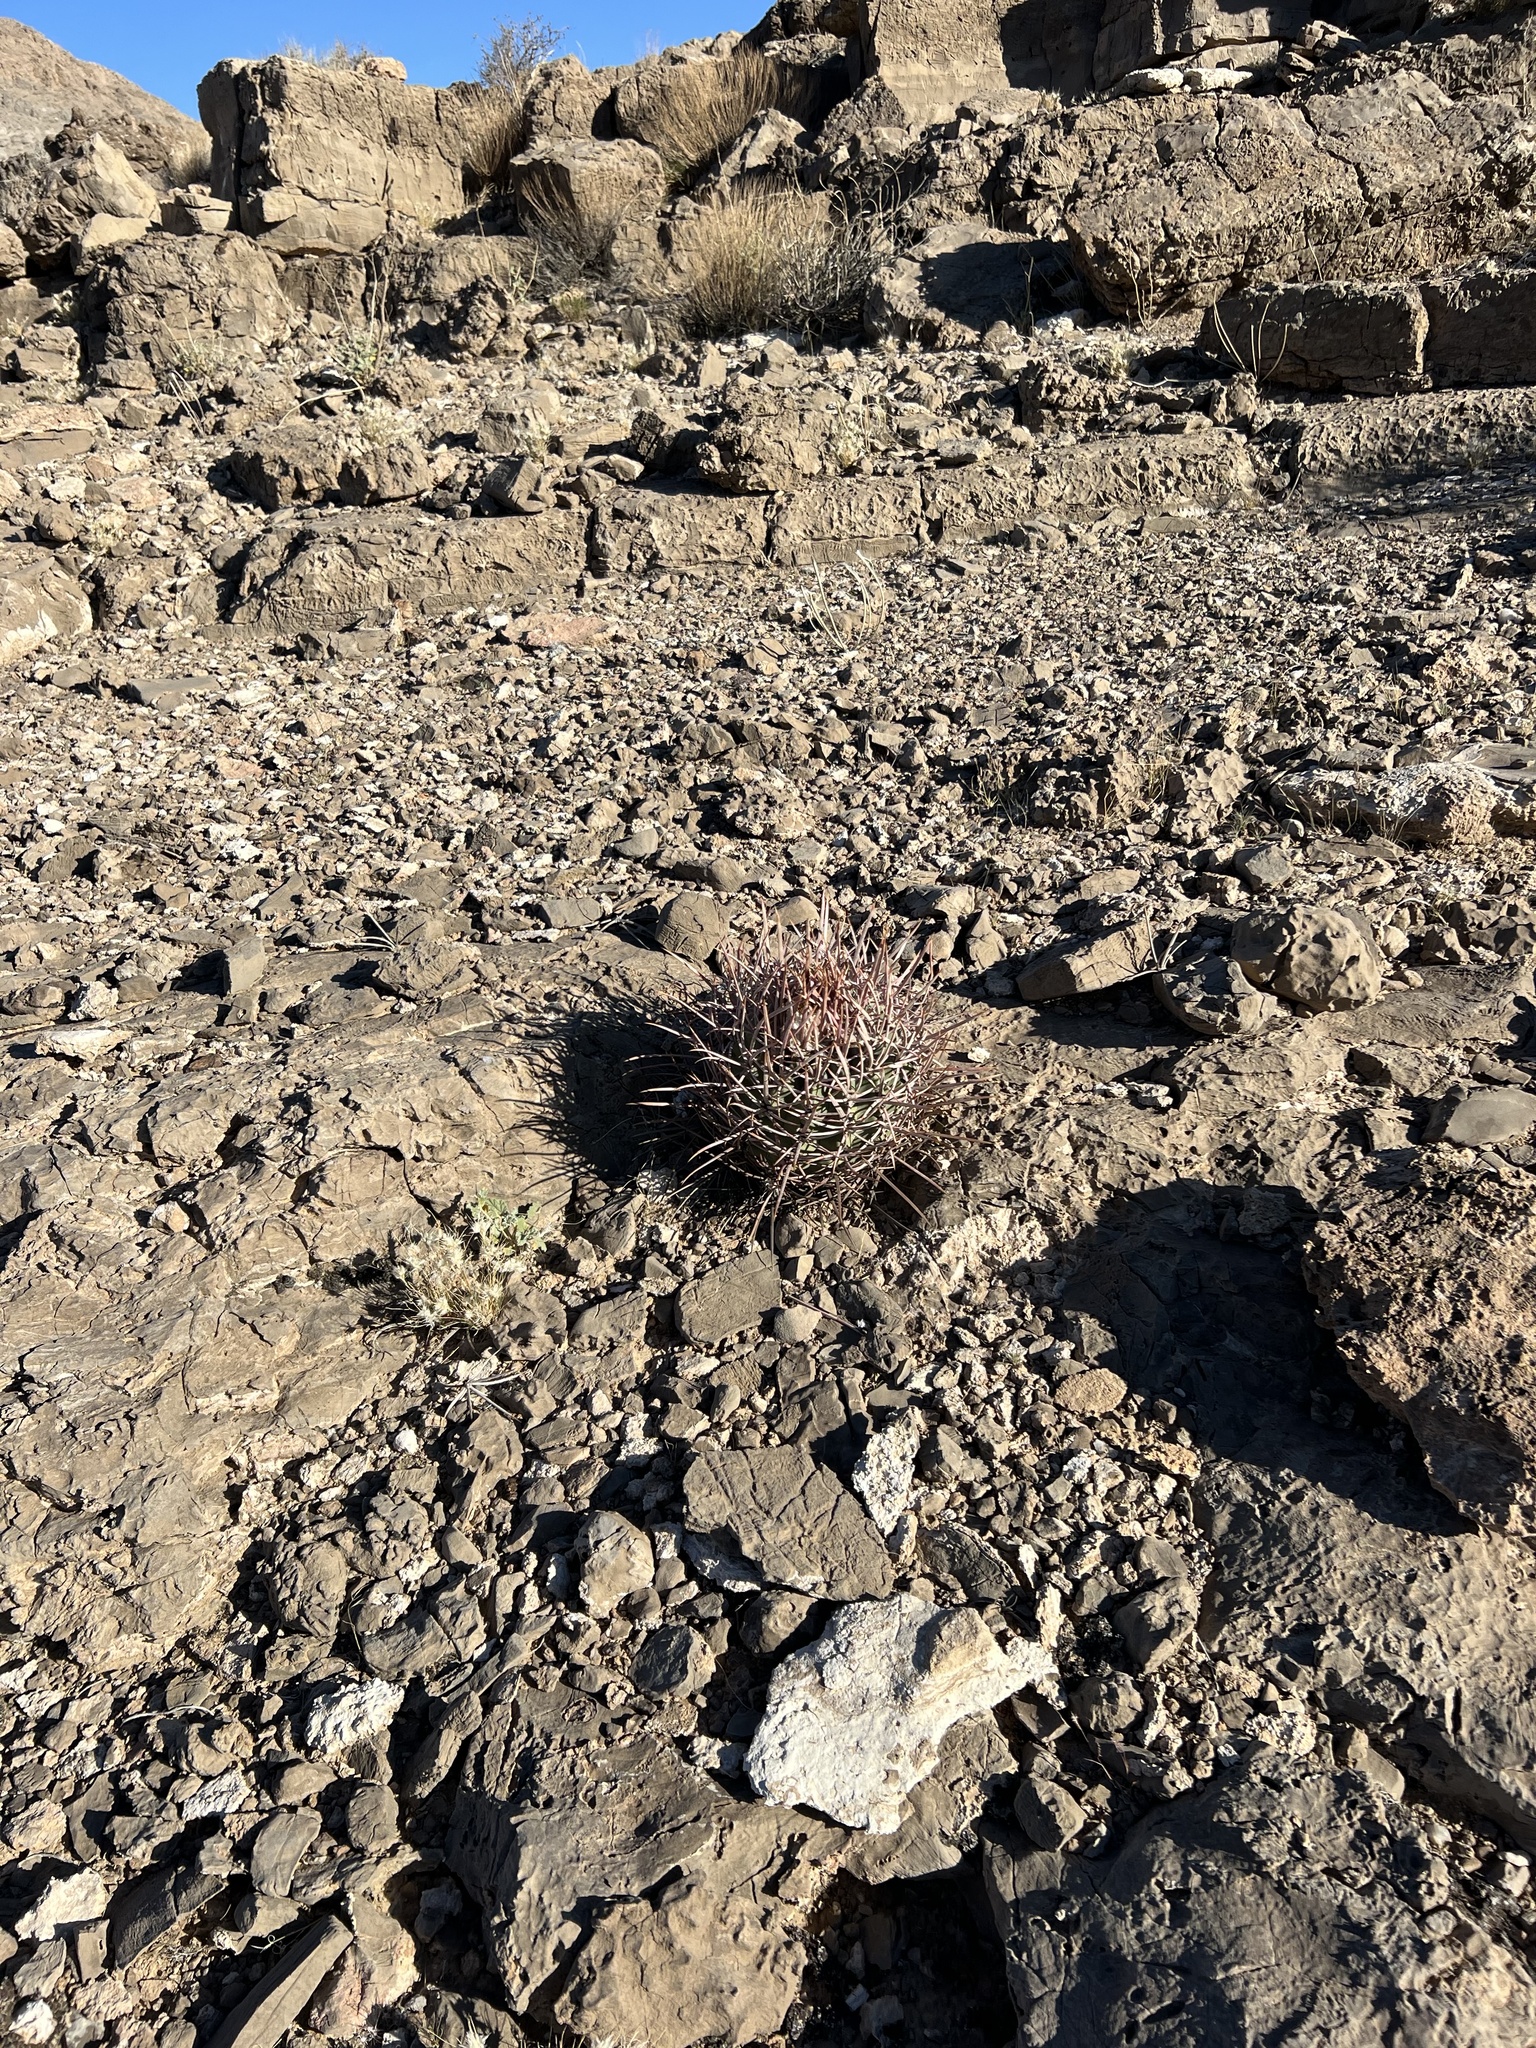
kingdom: Plantae
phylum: Tracheophyta
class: Magnoliopsida
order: Caryophyllales
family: Cactaceae
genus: Echinocactus
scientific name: Echinocactus polycephalus
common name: Cottontop cactus
